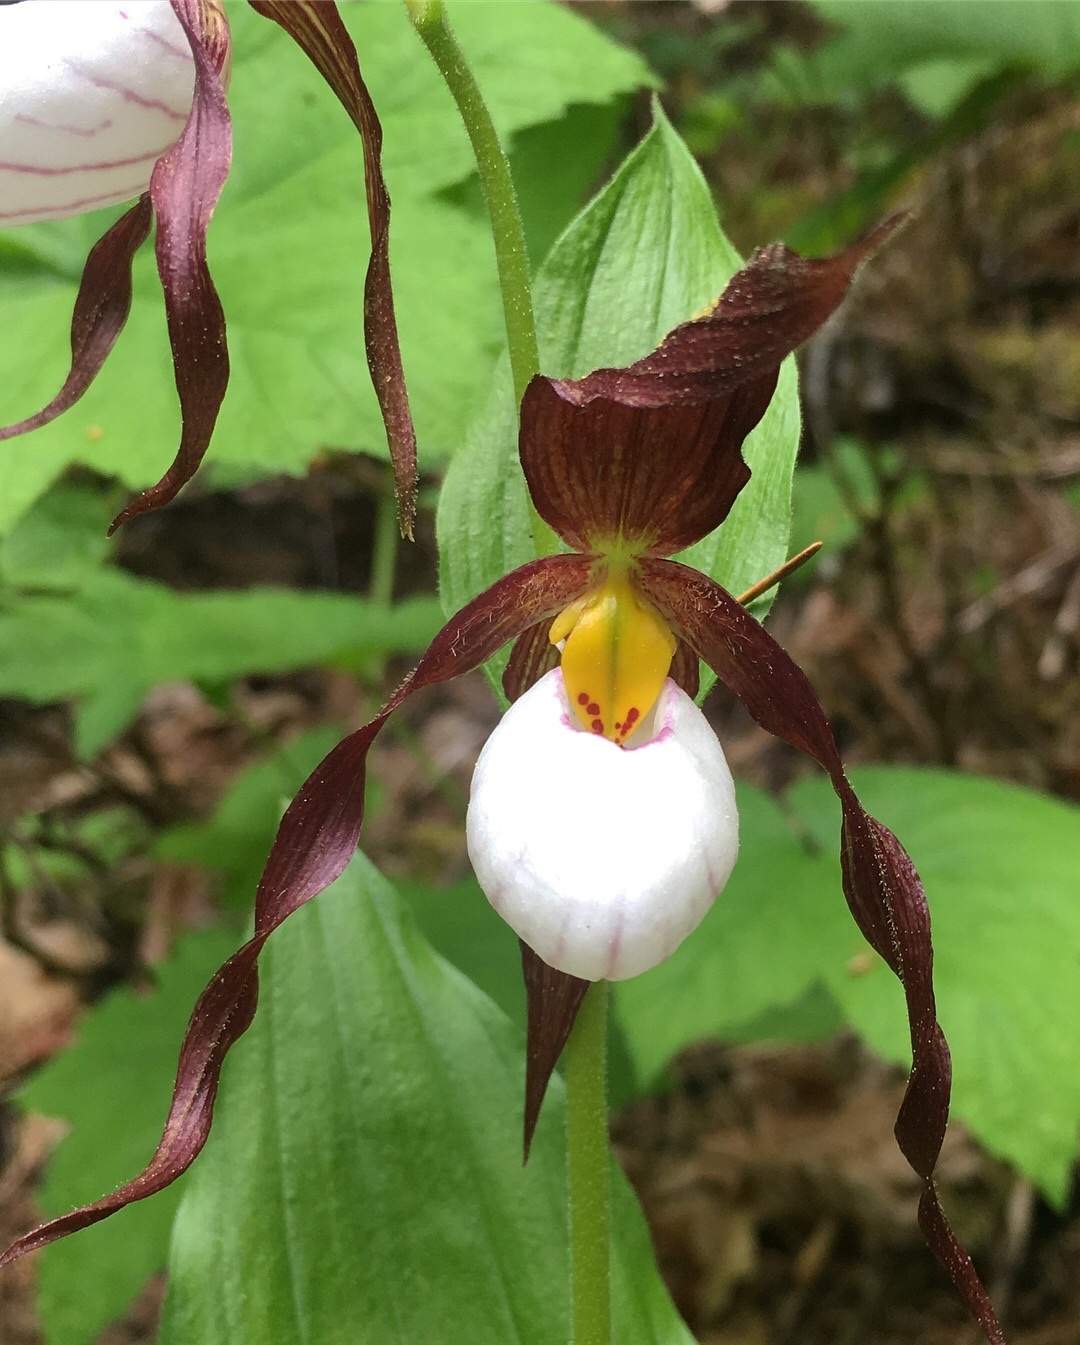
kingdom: Plantae
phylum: Tracheophyta
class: Liliopsida
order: Asparagales
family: Orchidaceae
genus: Cypripedium
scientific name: Cypripedium montanum
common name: Mountain lady's-slipper
